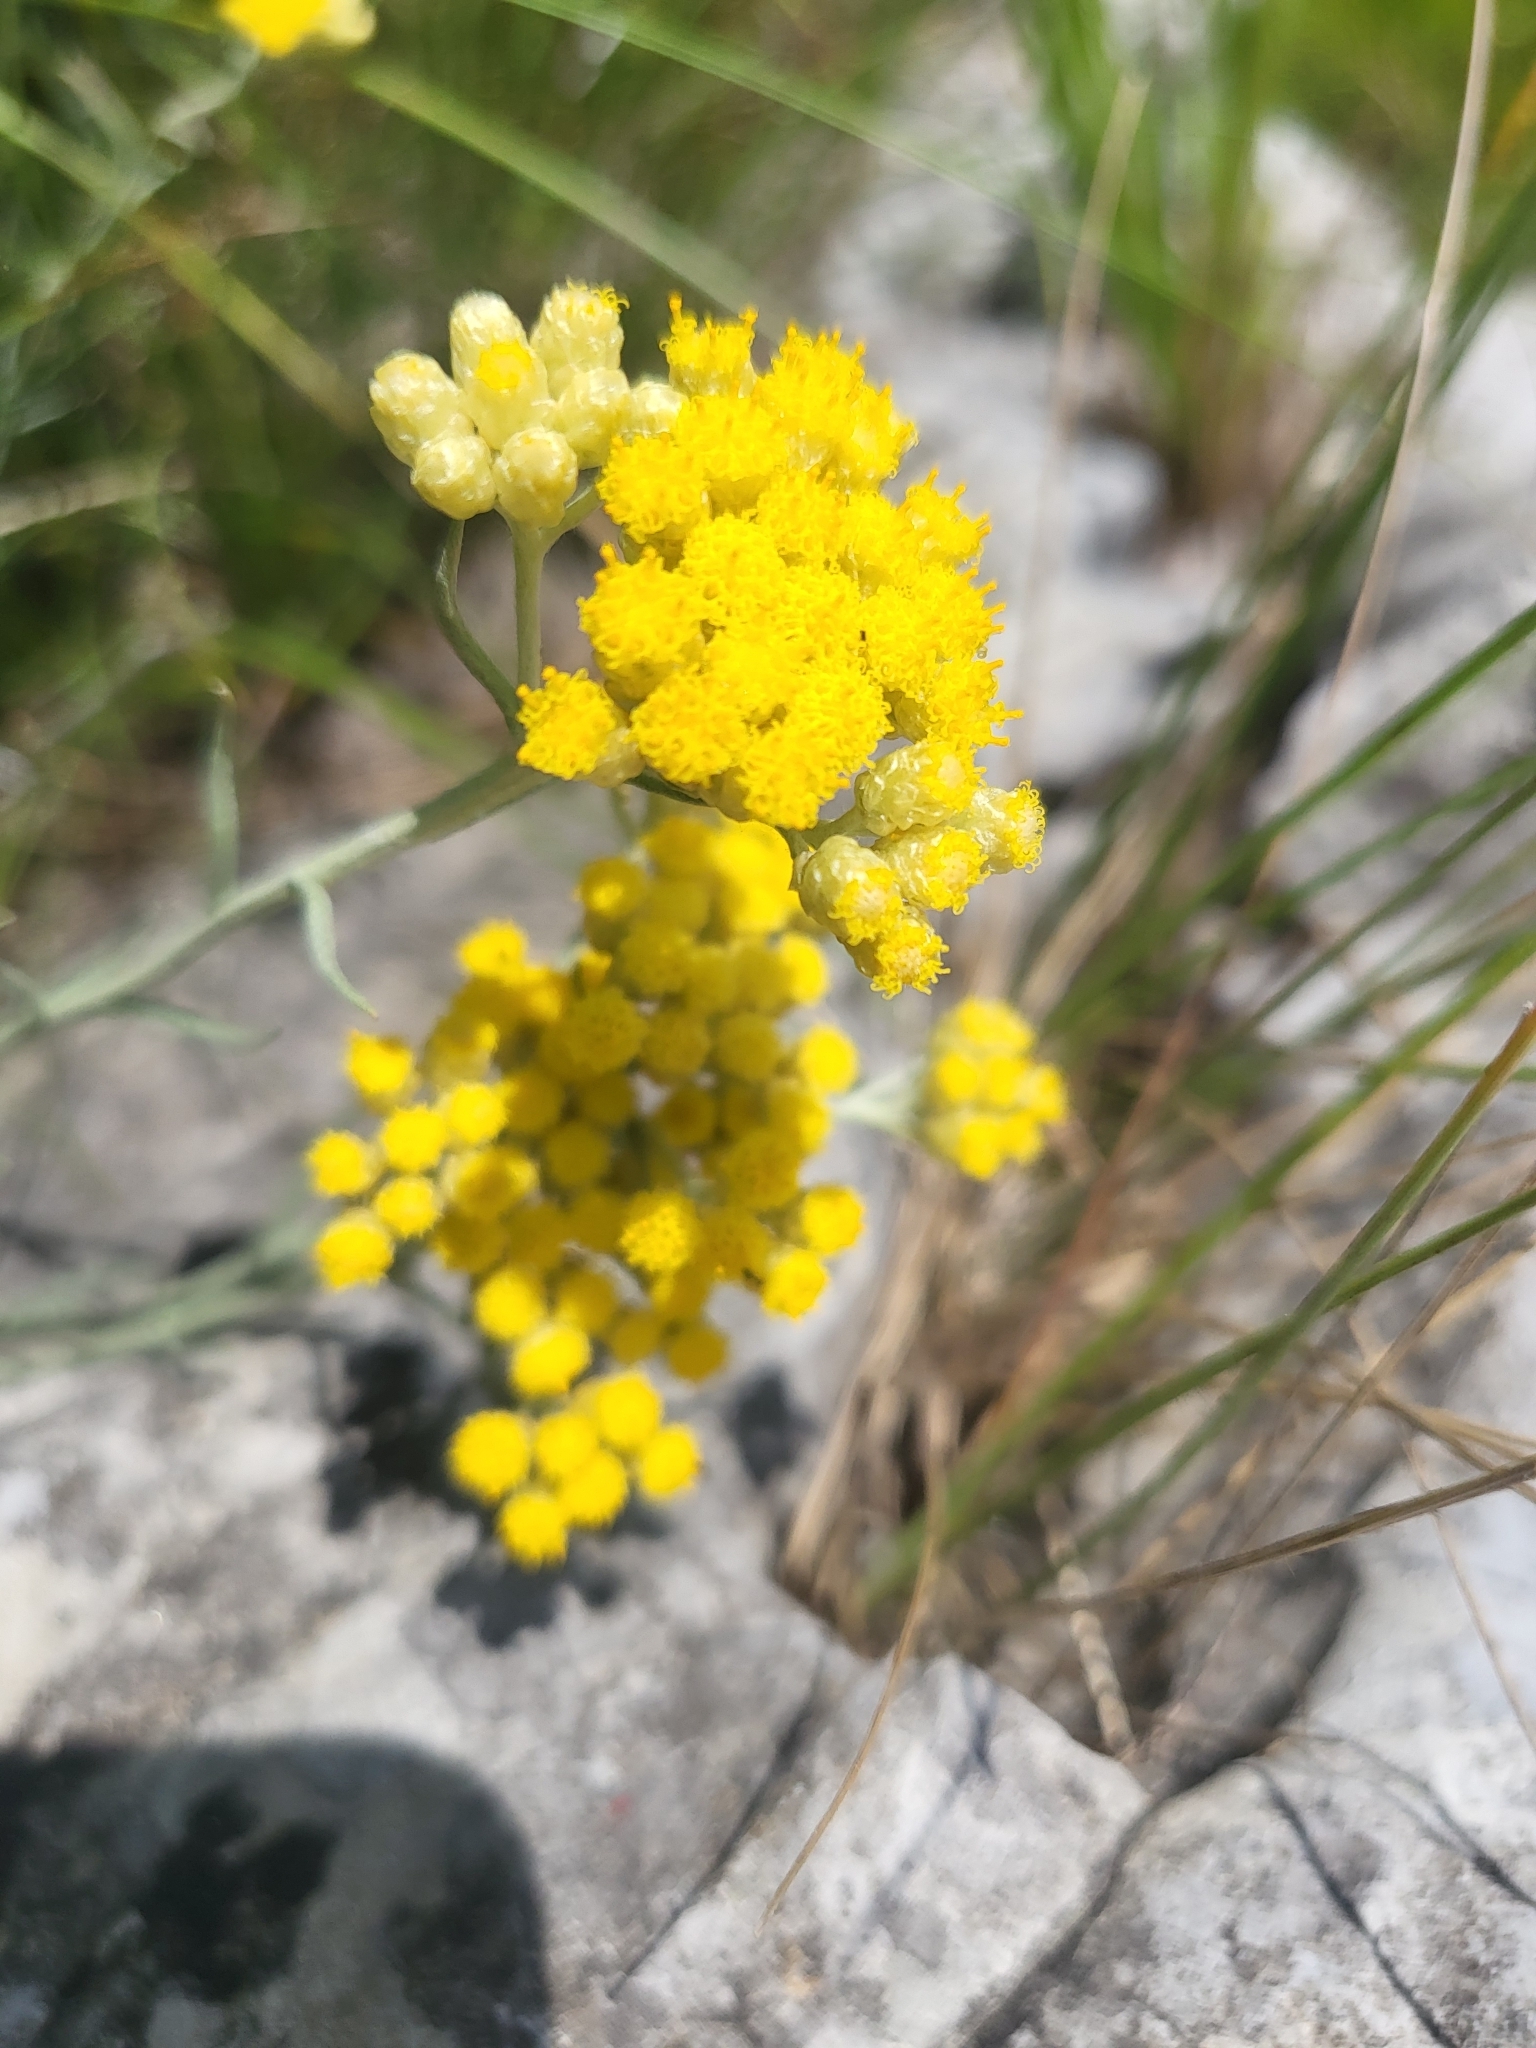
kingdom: Plantae
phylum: Tracheophyta
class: Magnoliopsida
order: Asterales
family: Asteraceae
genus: Helichrysum
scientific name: Helichrysum italicum
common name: Curryplant
